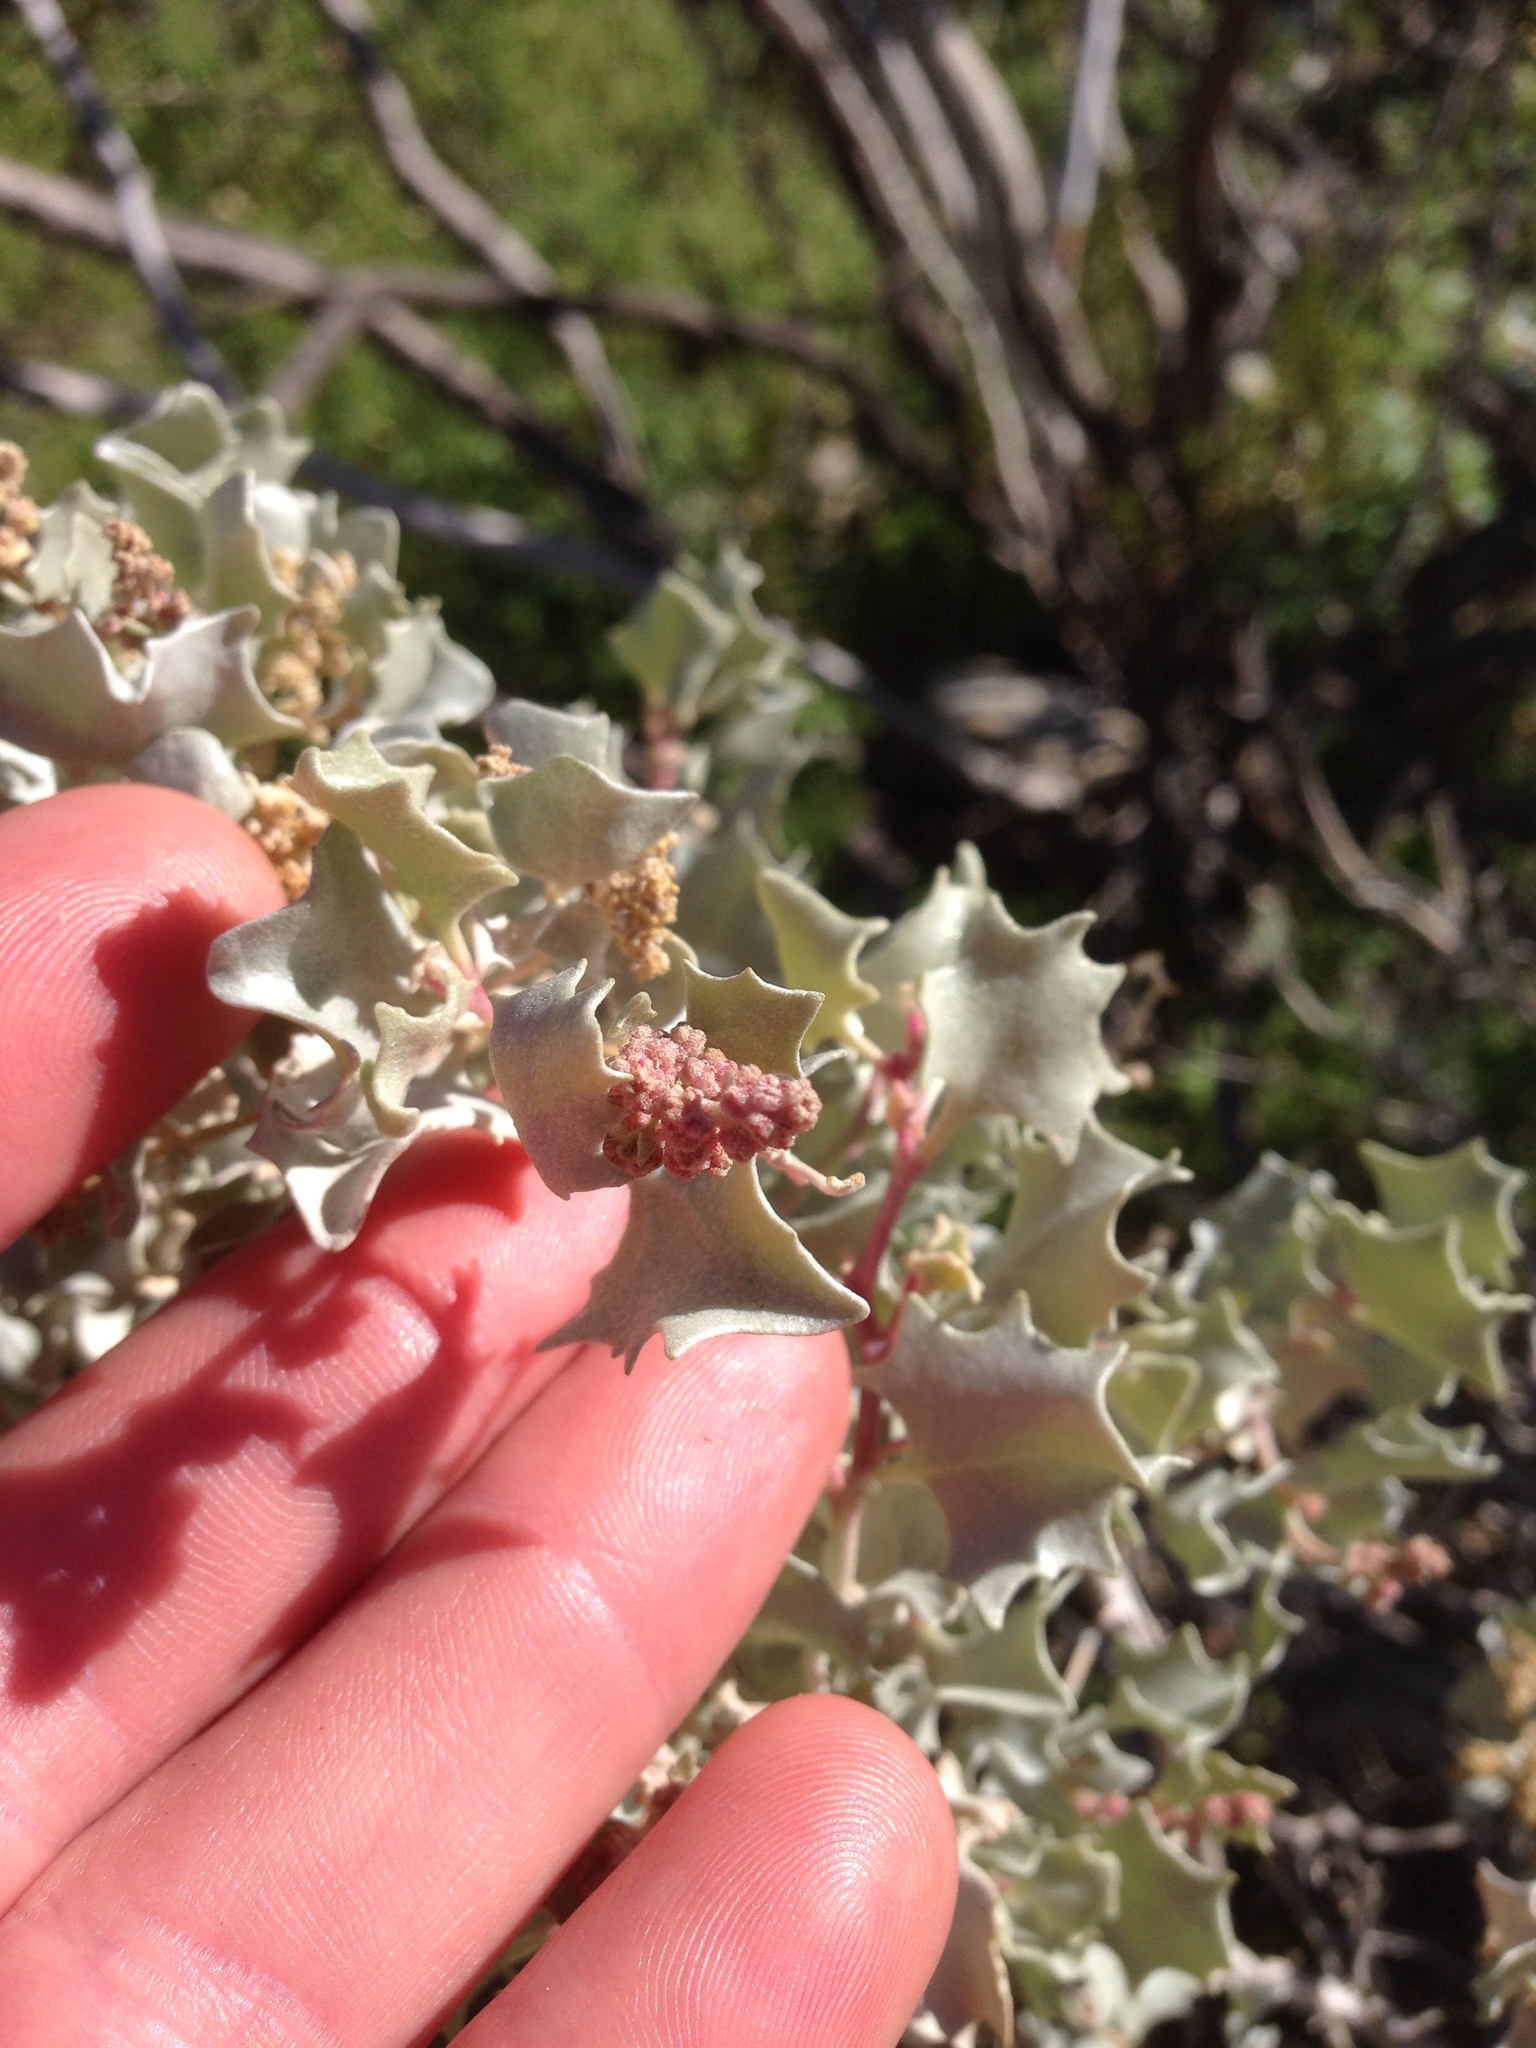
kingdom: Plantae
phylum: Tracheophyta
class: Magnoliopsida
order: Caryophyllales
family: Amaranthaceae
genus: Atriplex
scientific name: Atriplex hymenelytra
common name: Desert-holly
